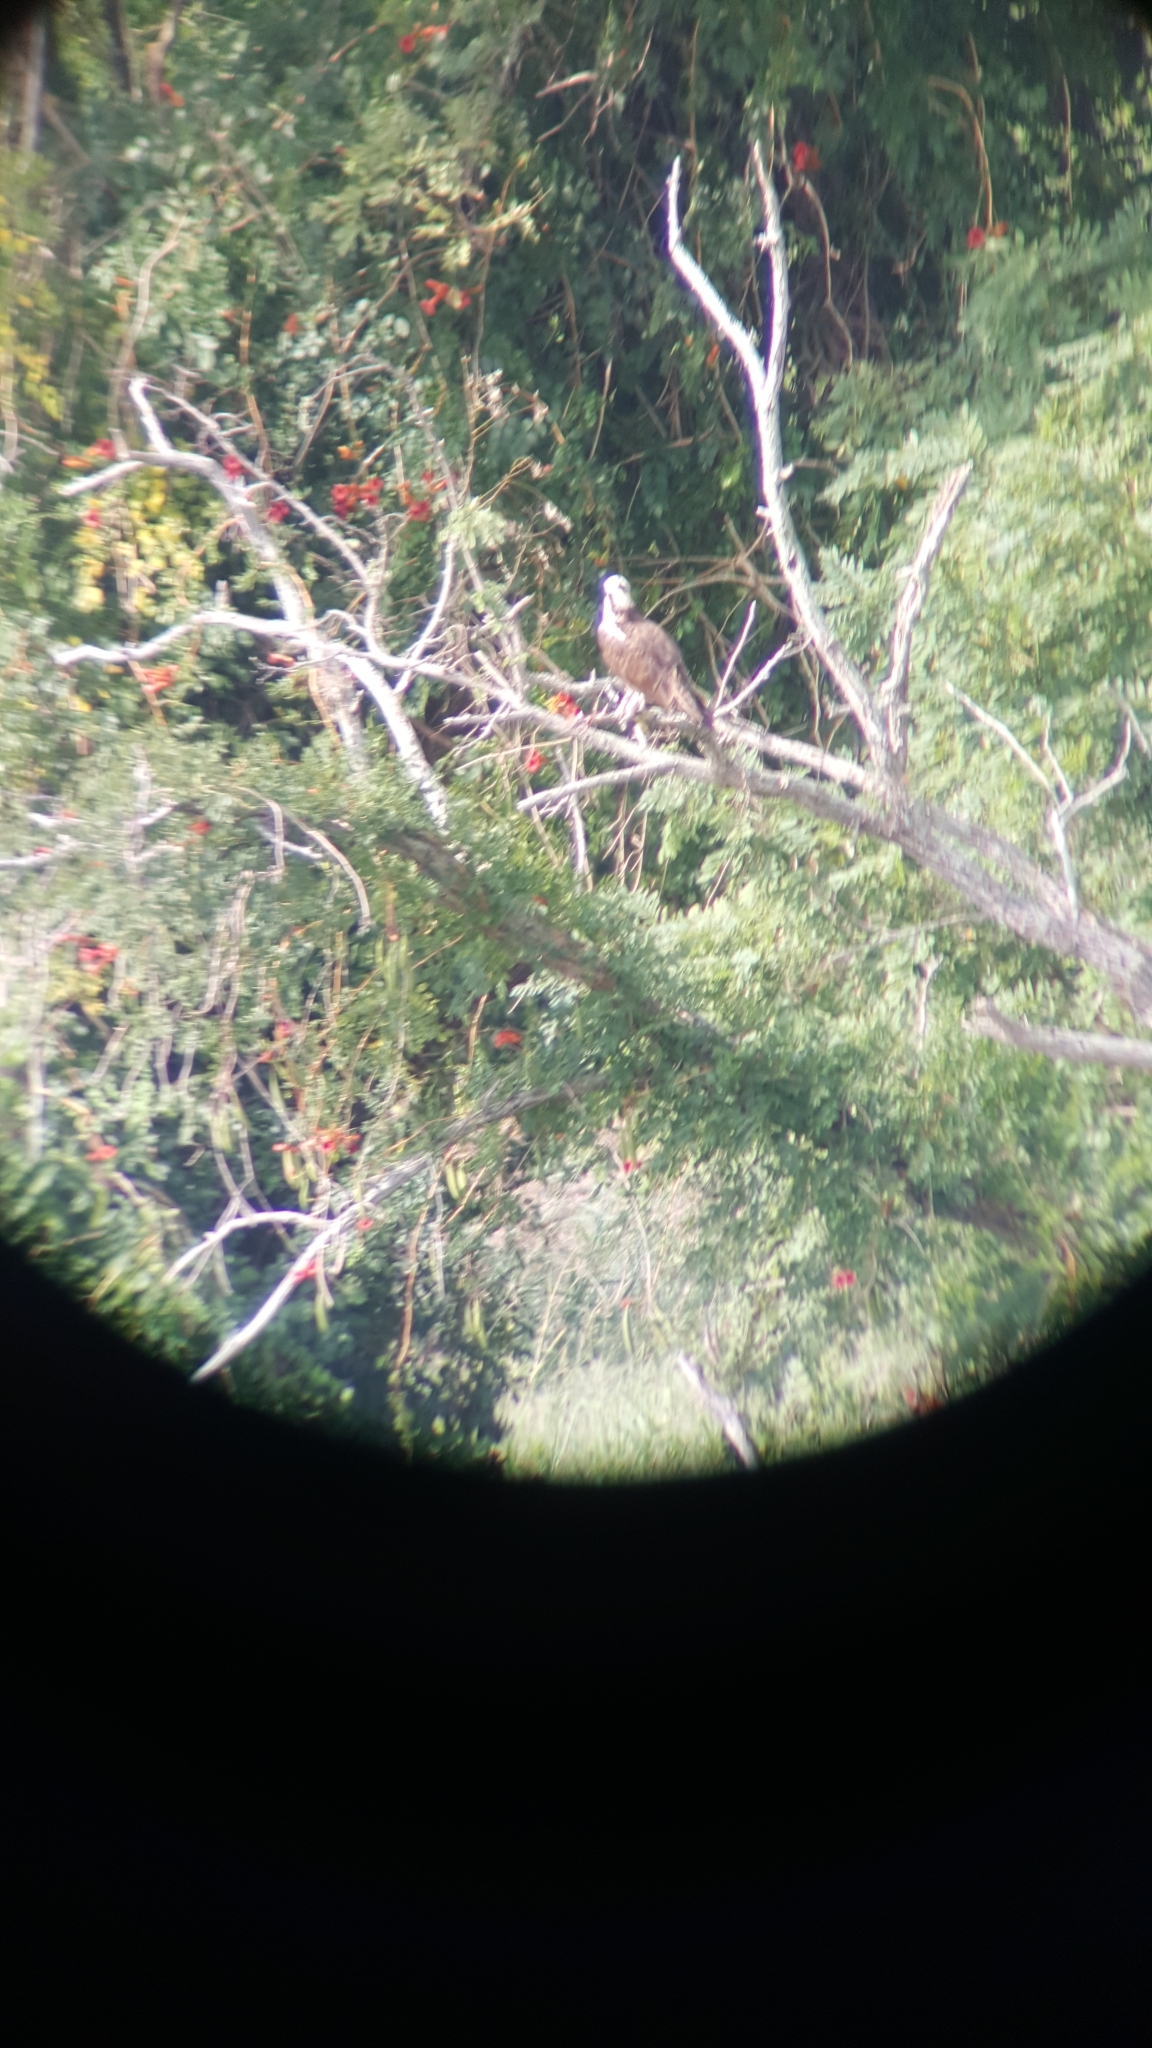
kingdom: Animalia
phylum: Chordata
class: Aves
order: Accipitriformes
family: Pandionidae
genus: Pandion
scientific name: Pandion haliaetus
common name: Osprey
